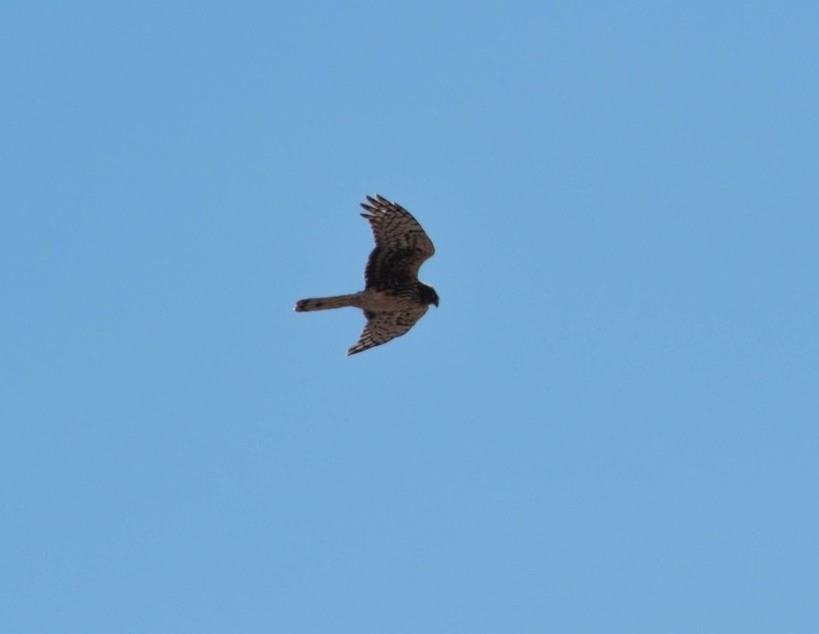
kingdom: Animalia
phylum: Chordata
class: Aves
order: Accipitriformes
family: Accipitridae
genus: Circus
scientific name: Circus cyaneus
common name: Hen harrier
